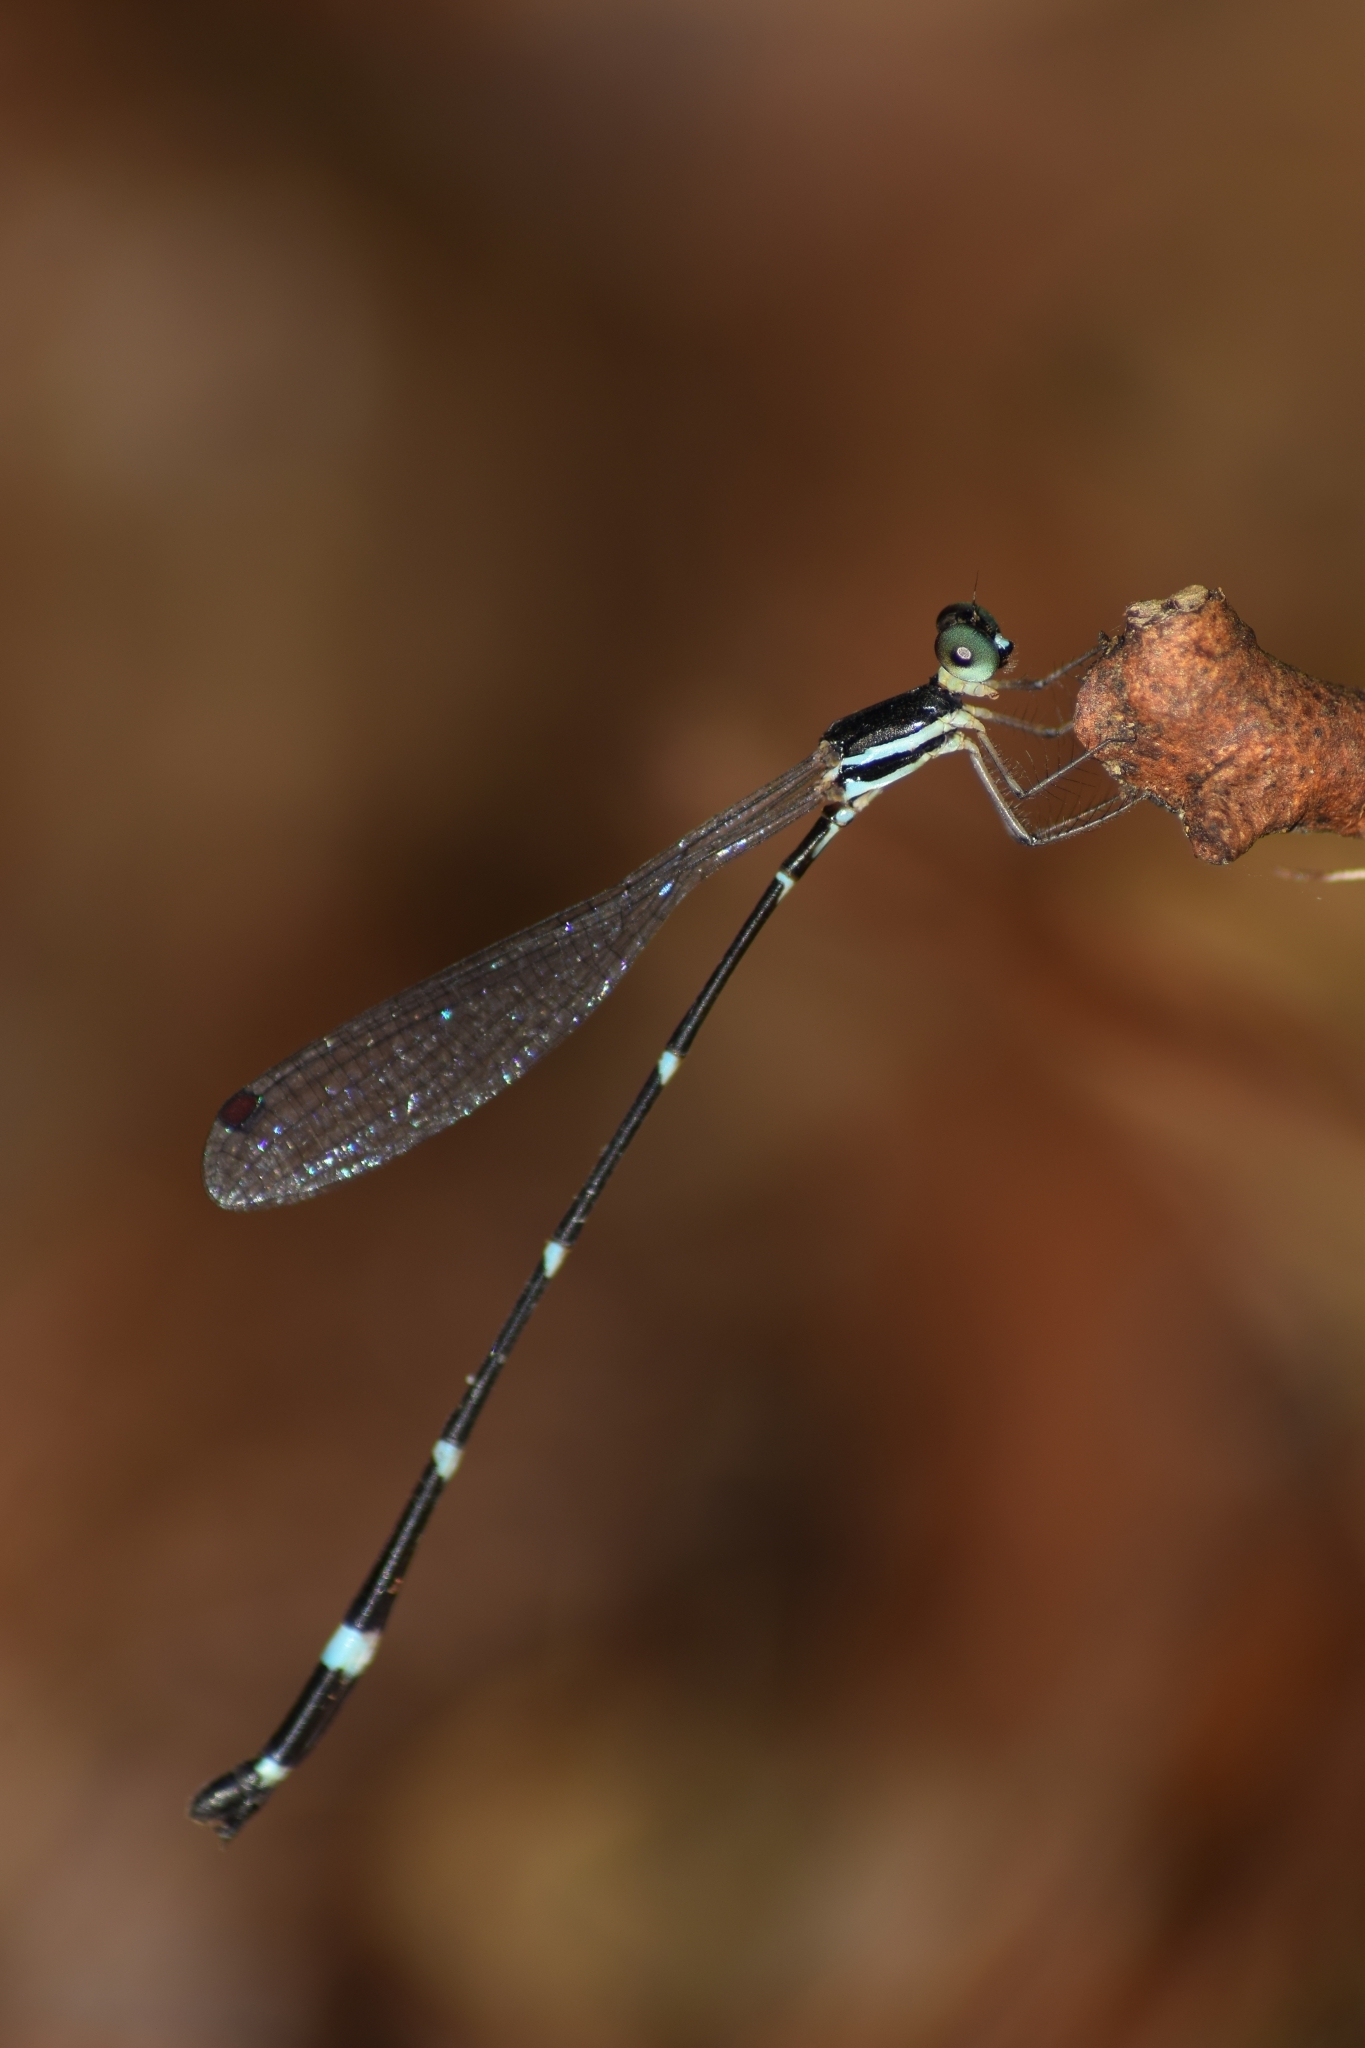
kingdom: Animalia
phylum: Arthropoda
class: Insecta
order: Odonata
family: Platystictidae
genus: Protosticta
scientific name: Protosticta gravelyi
